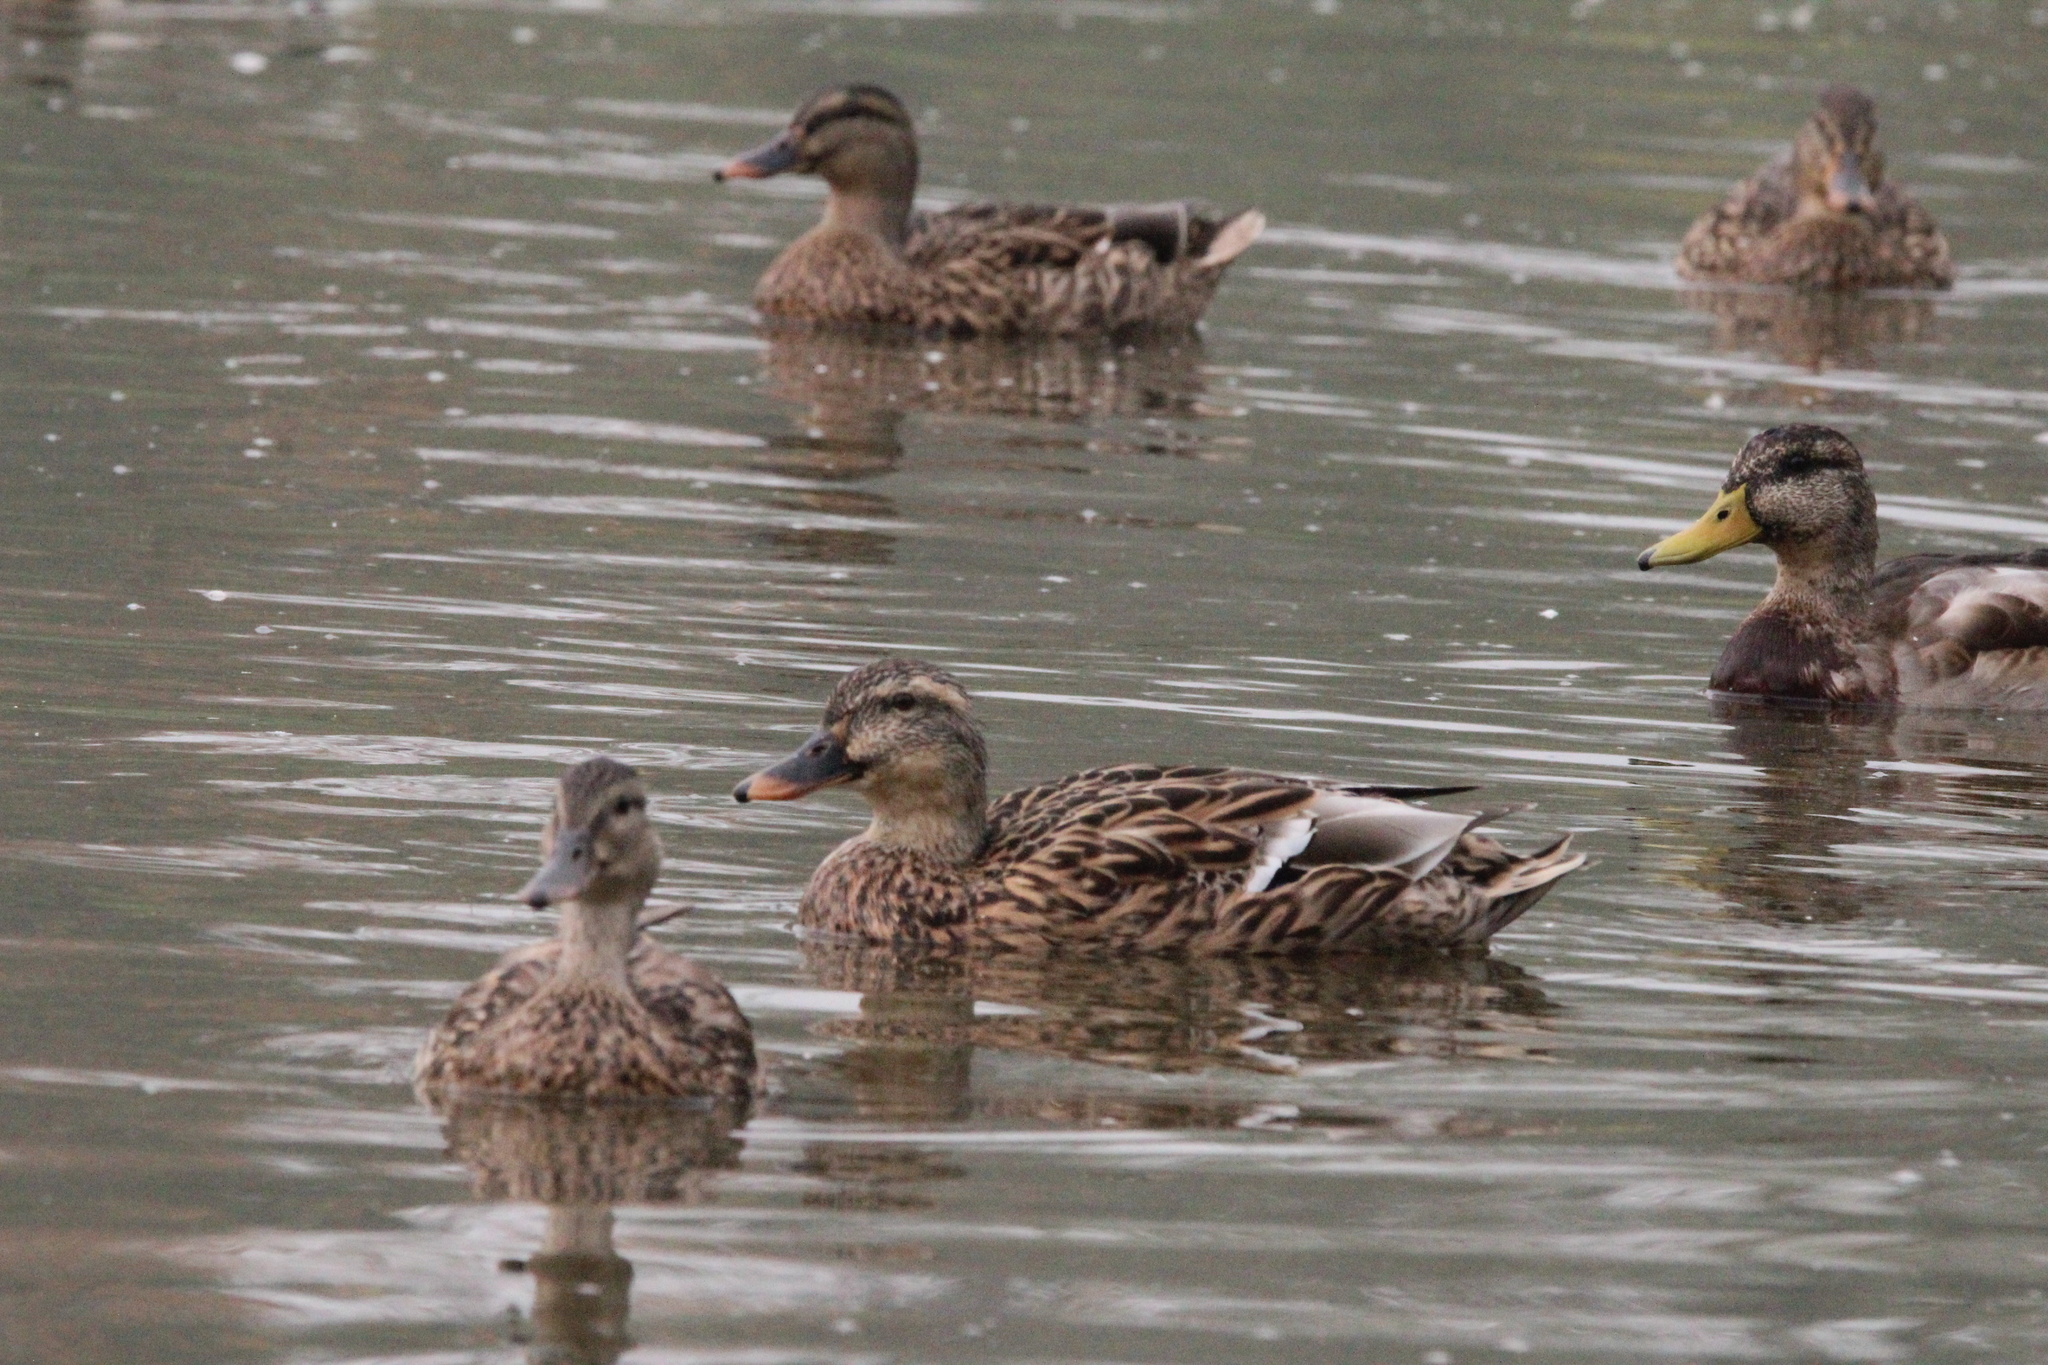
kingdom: Animalia
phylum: Chordata
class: Aves
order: Anseriformes
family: Anatidae
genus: Anas
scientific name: Anas platyrhynchos
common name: Mallard
